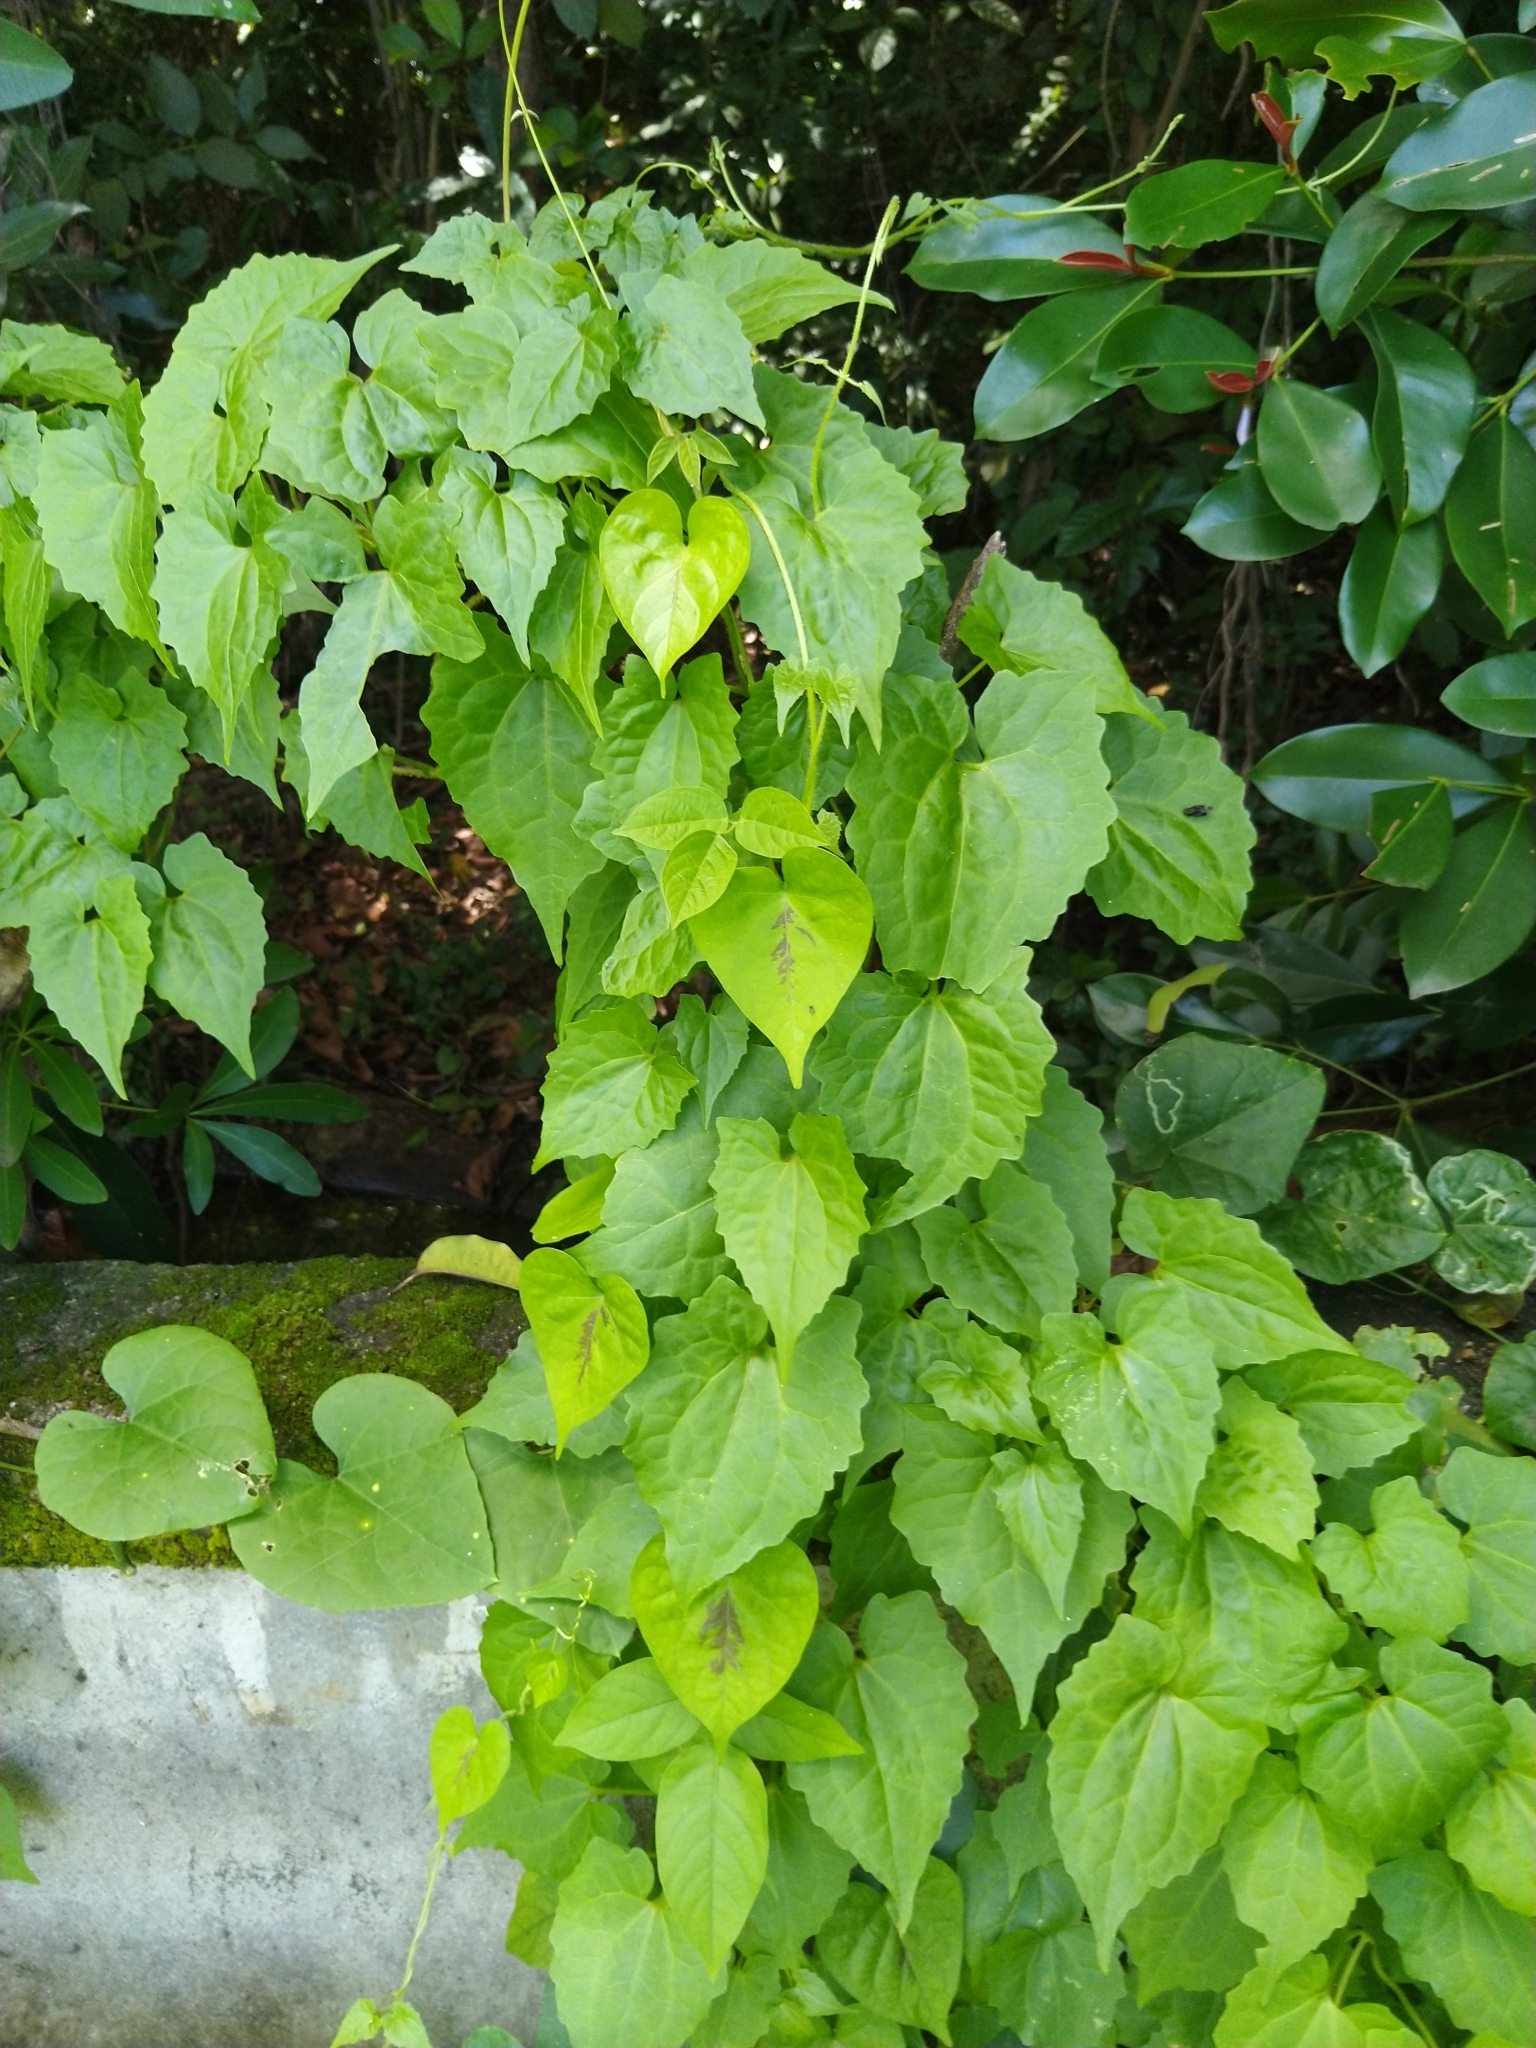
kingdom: Plantae
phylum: Tracheophyta
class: Magnoliopsida
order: Asterales
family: Asteraceae
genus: Mikania
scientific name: Mikania micrantha
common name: Mile-a-minute
